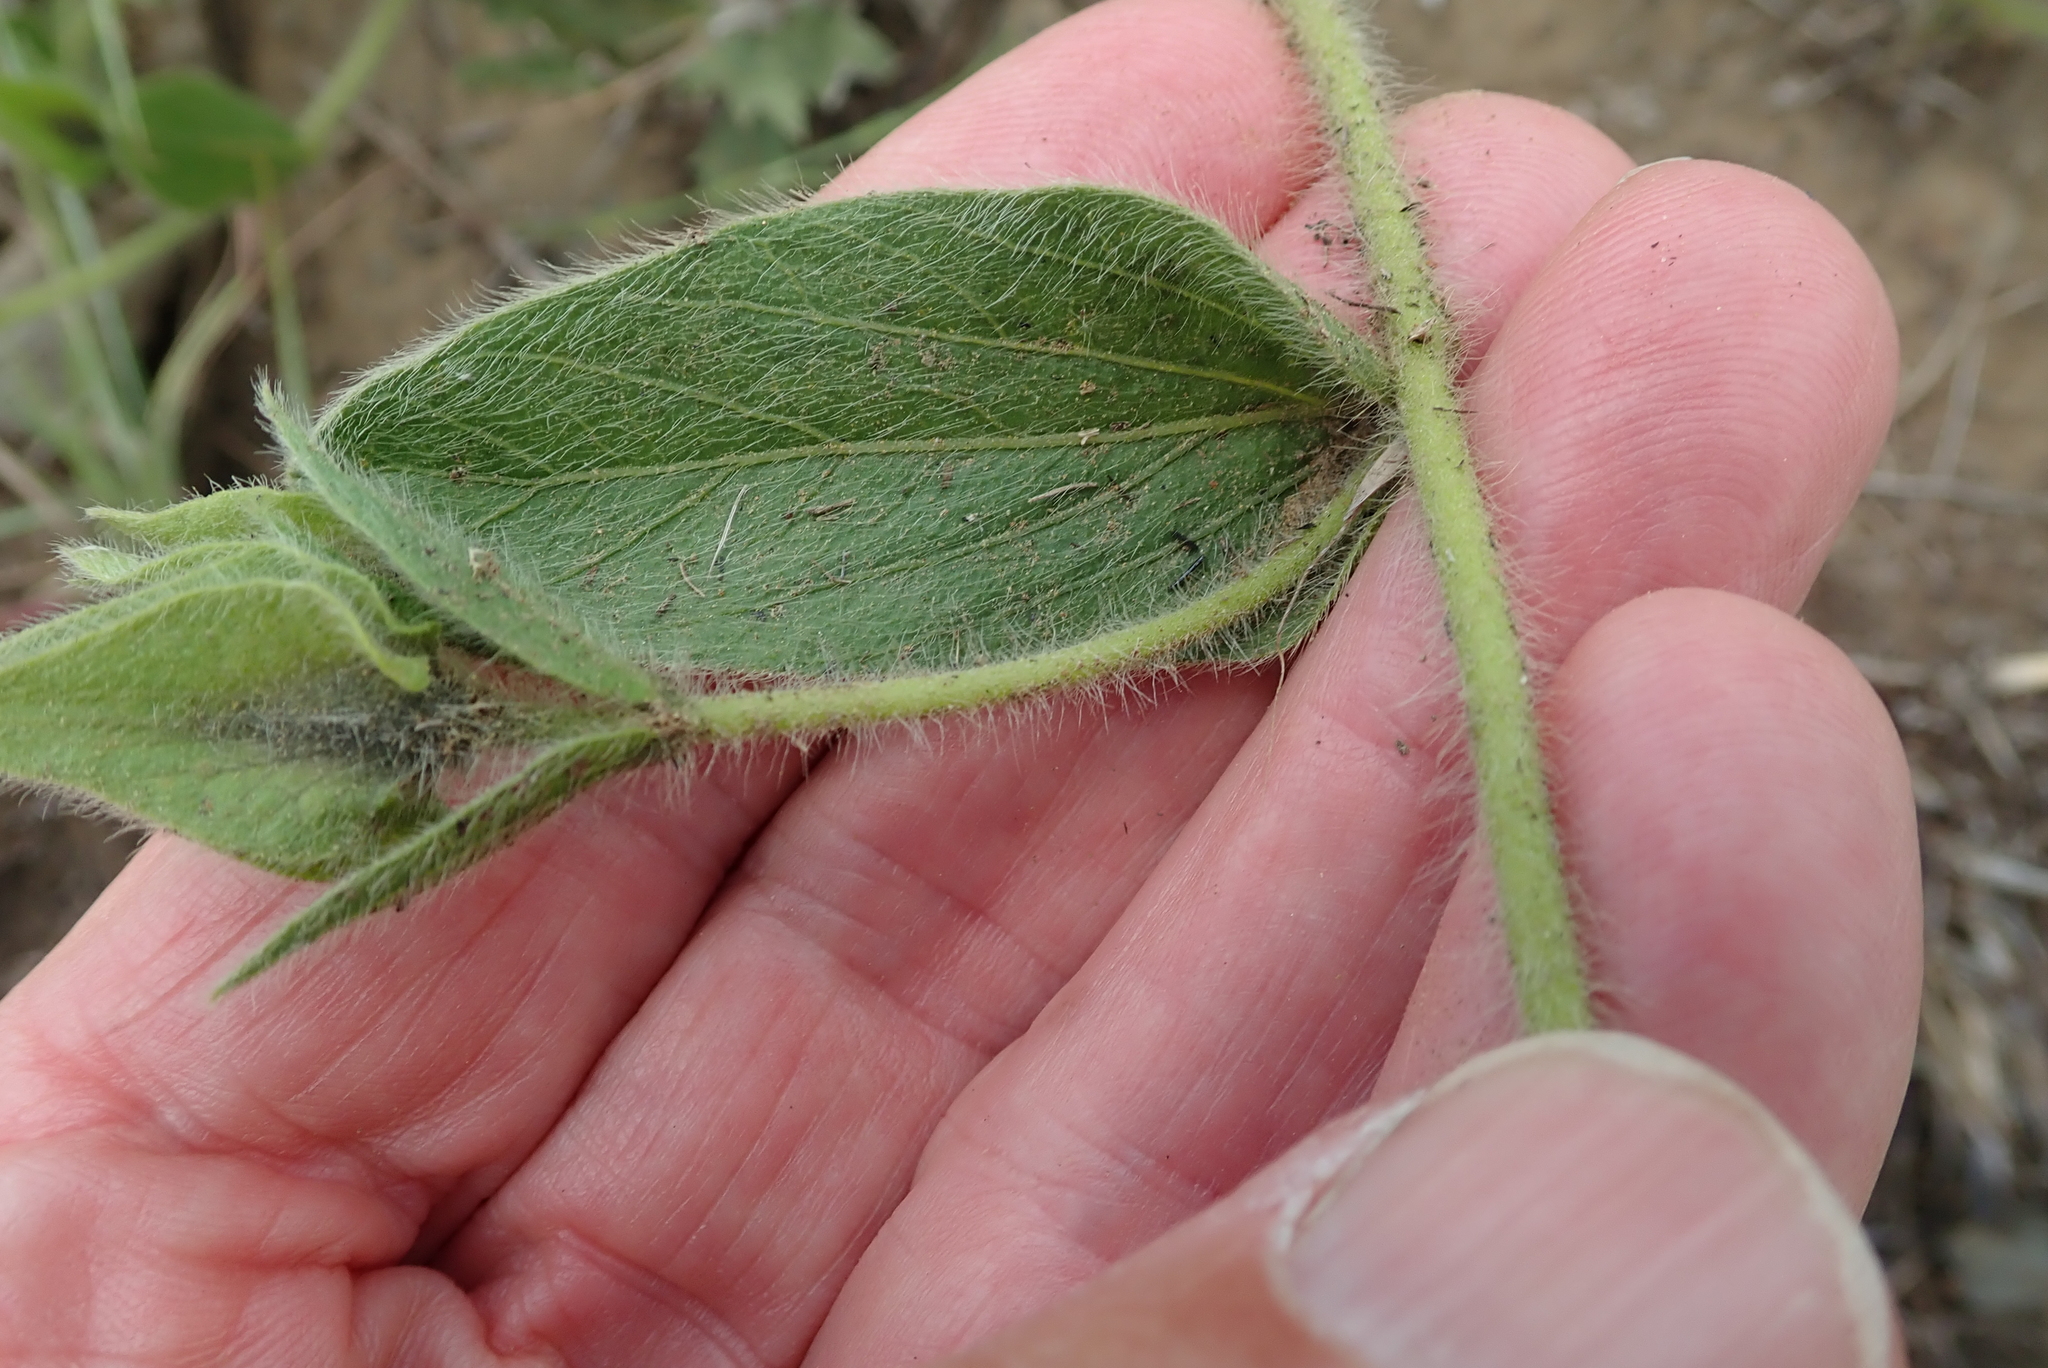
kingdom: Plantae
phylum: Tracheophyta
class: Magnoliopsida
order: Solanales
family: Convolvulaceae
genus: Ipomoea
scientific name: Ipomoea crassipes
